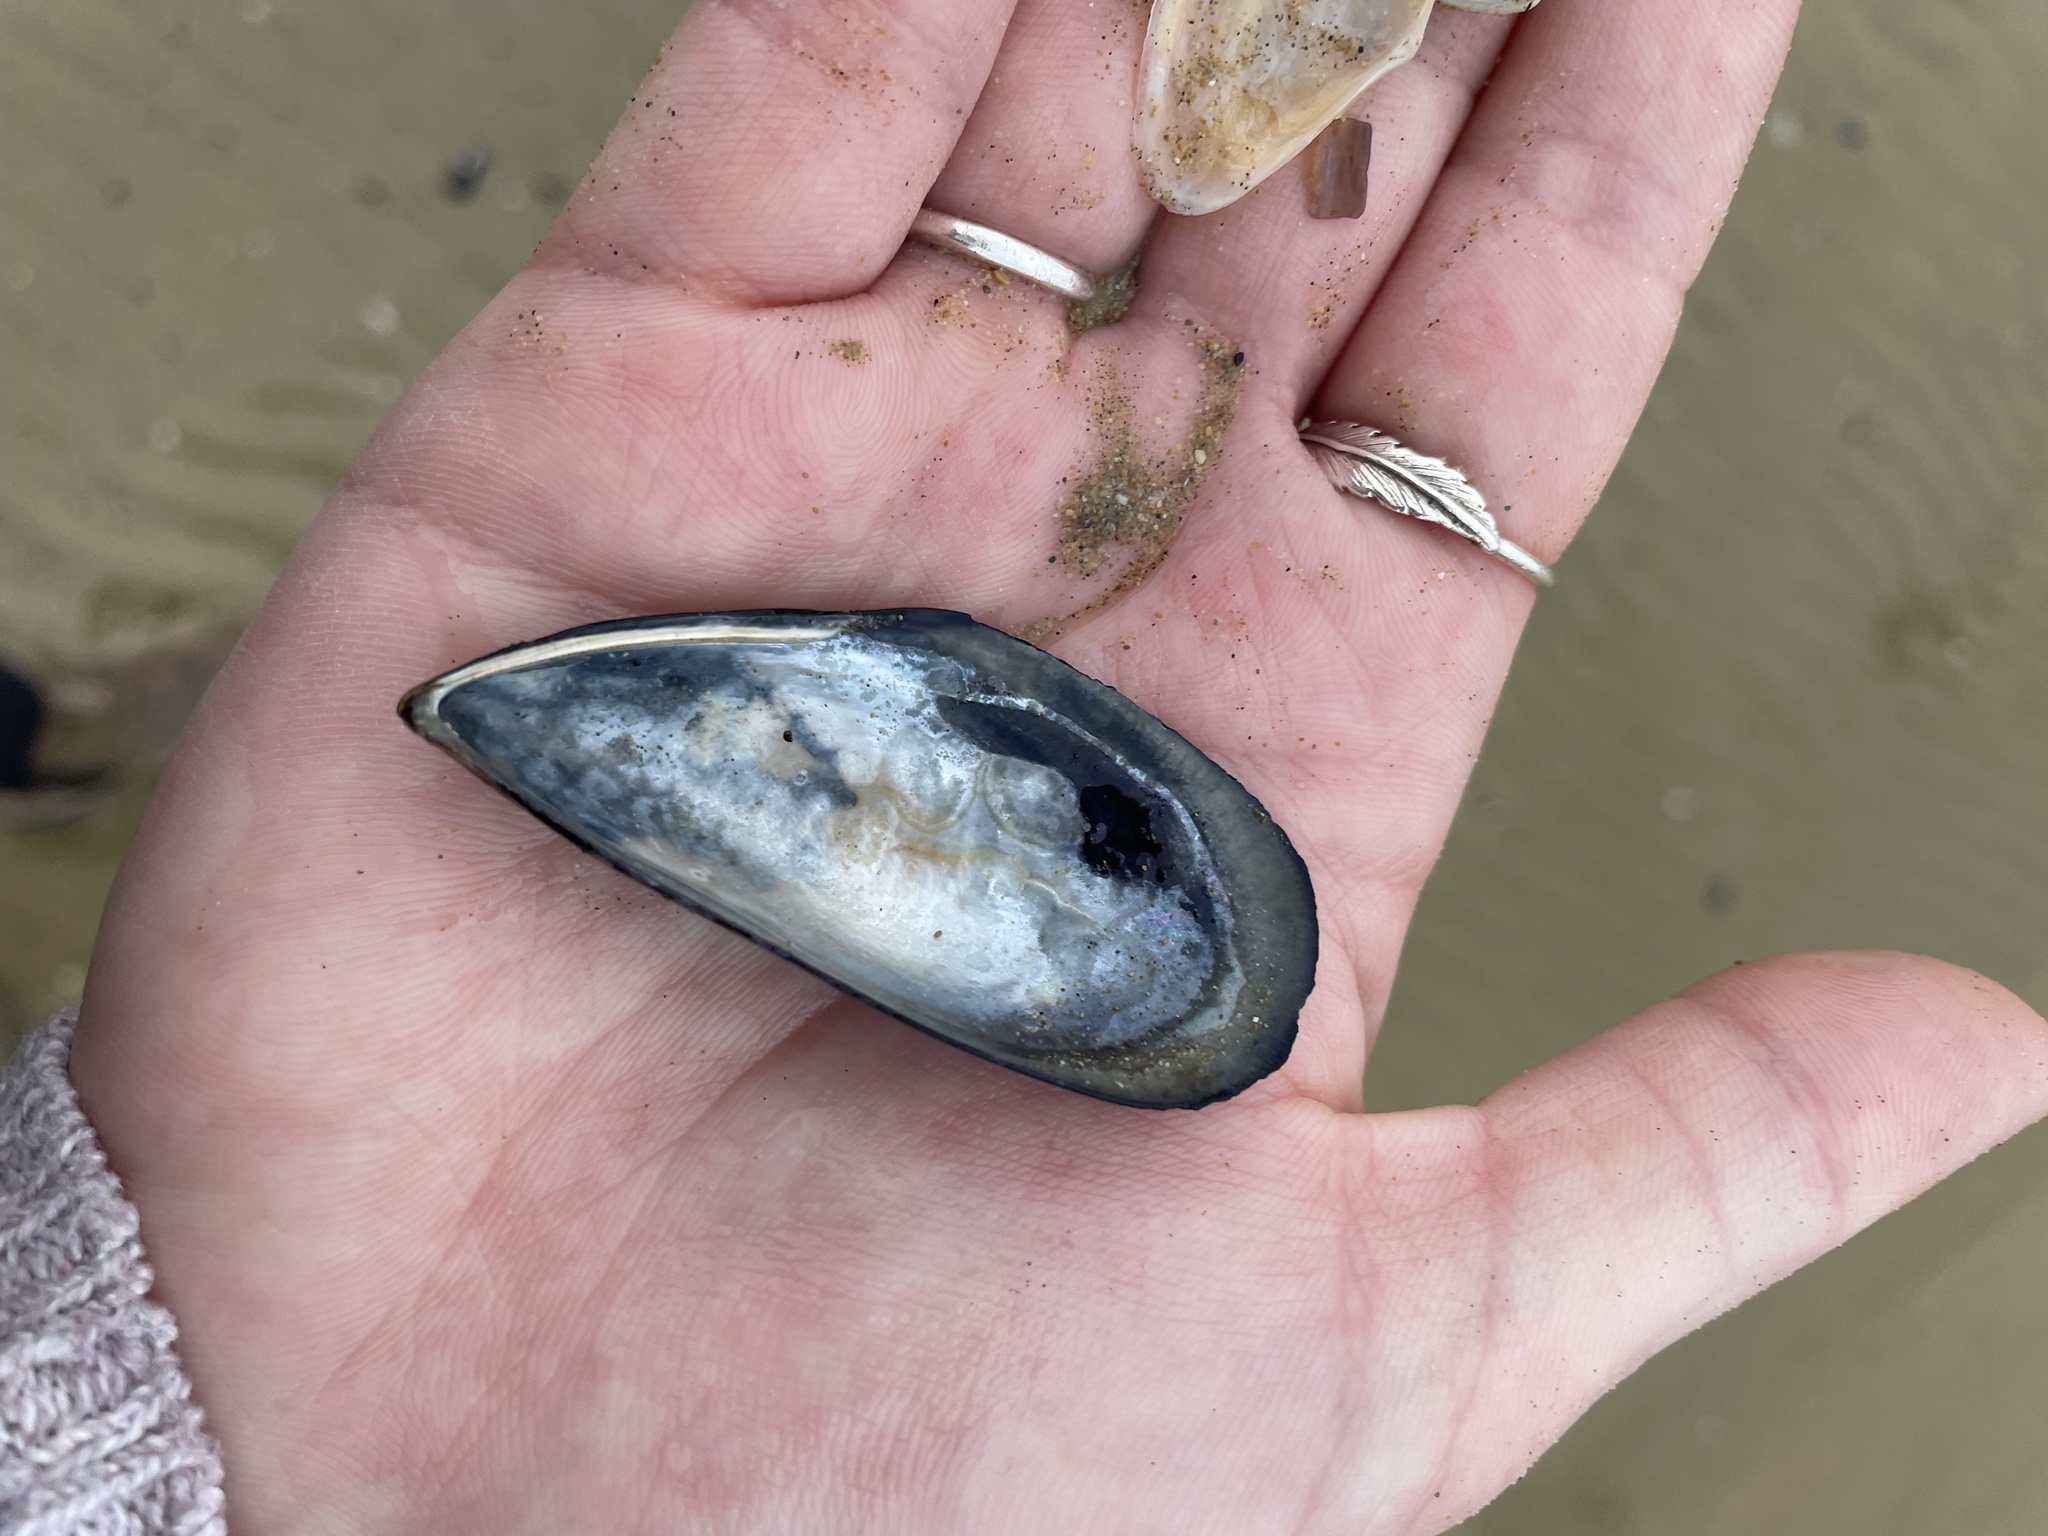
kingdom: Animalia
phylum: Mollusca
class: Bivalvia
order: Venerida
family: Veneridae
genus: Chamelea
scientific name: Chamelea gallina
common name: Chicken venus
